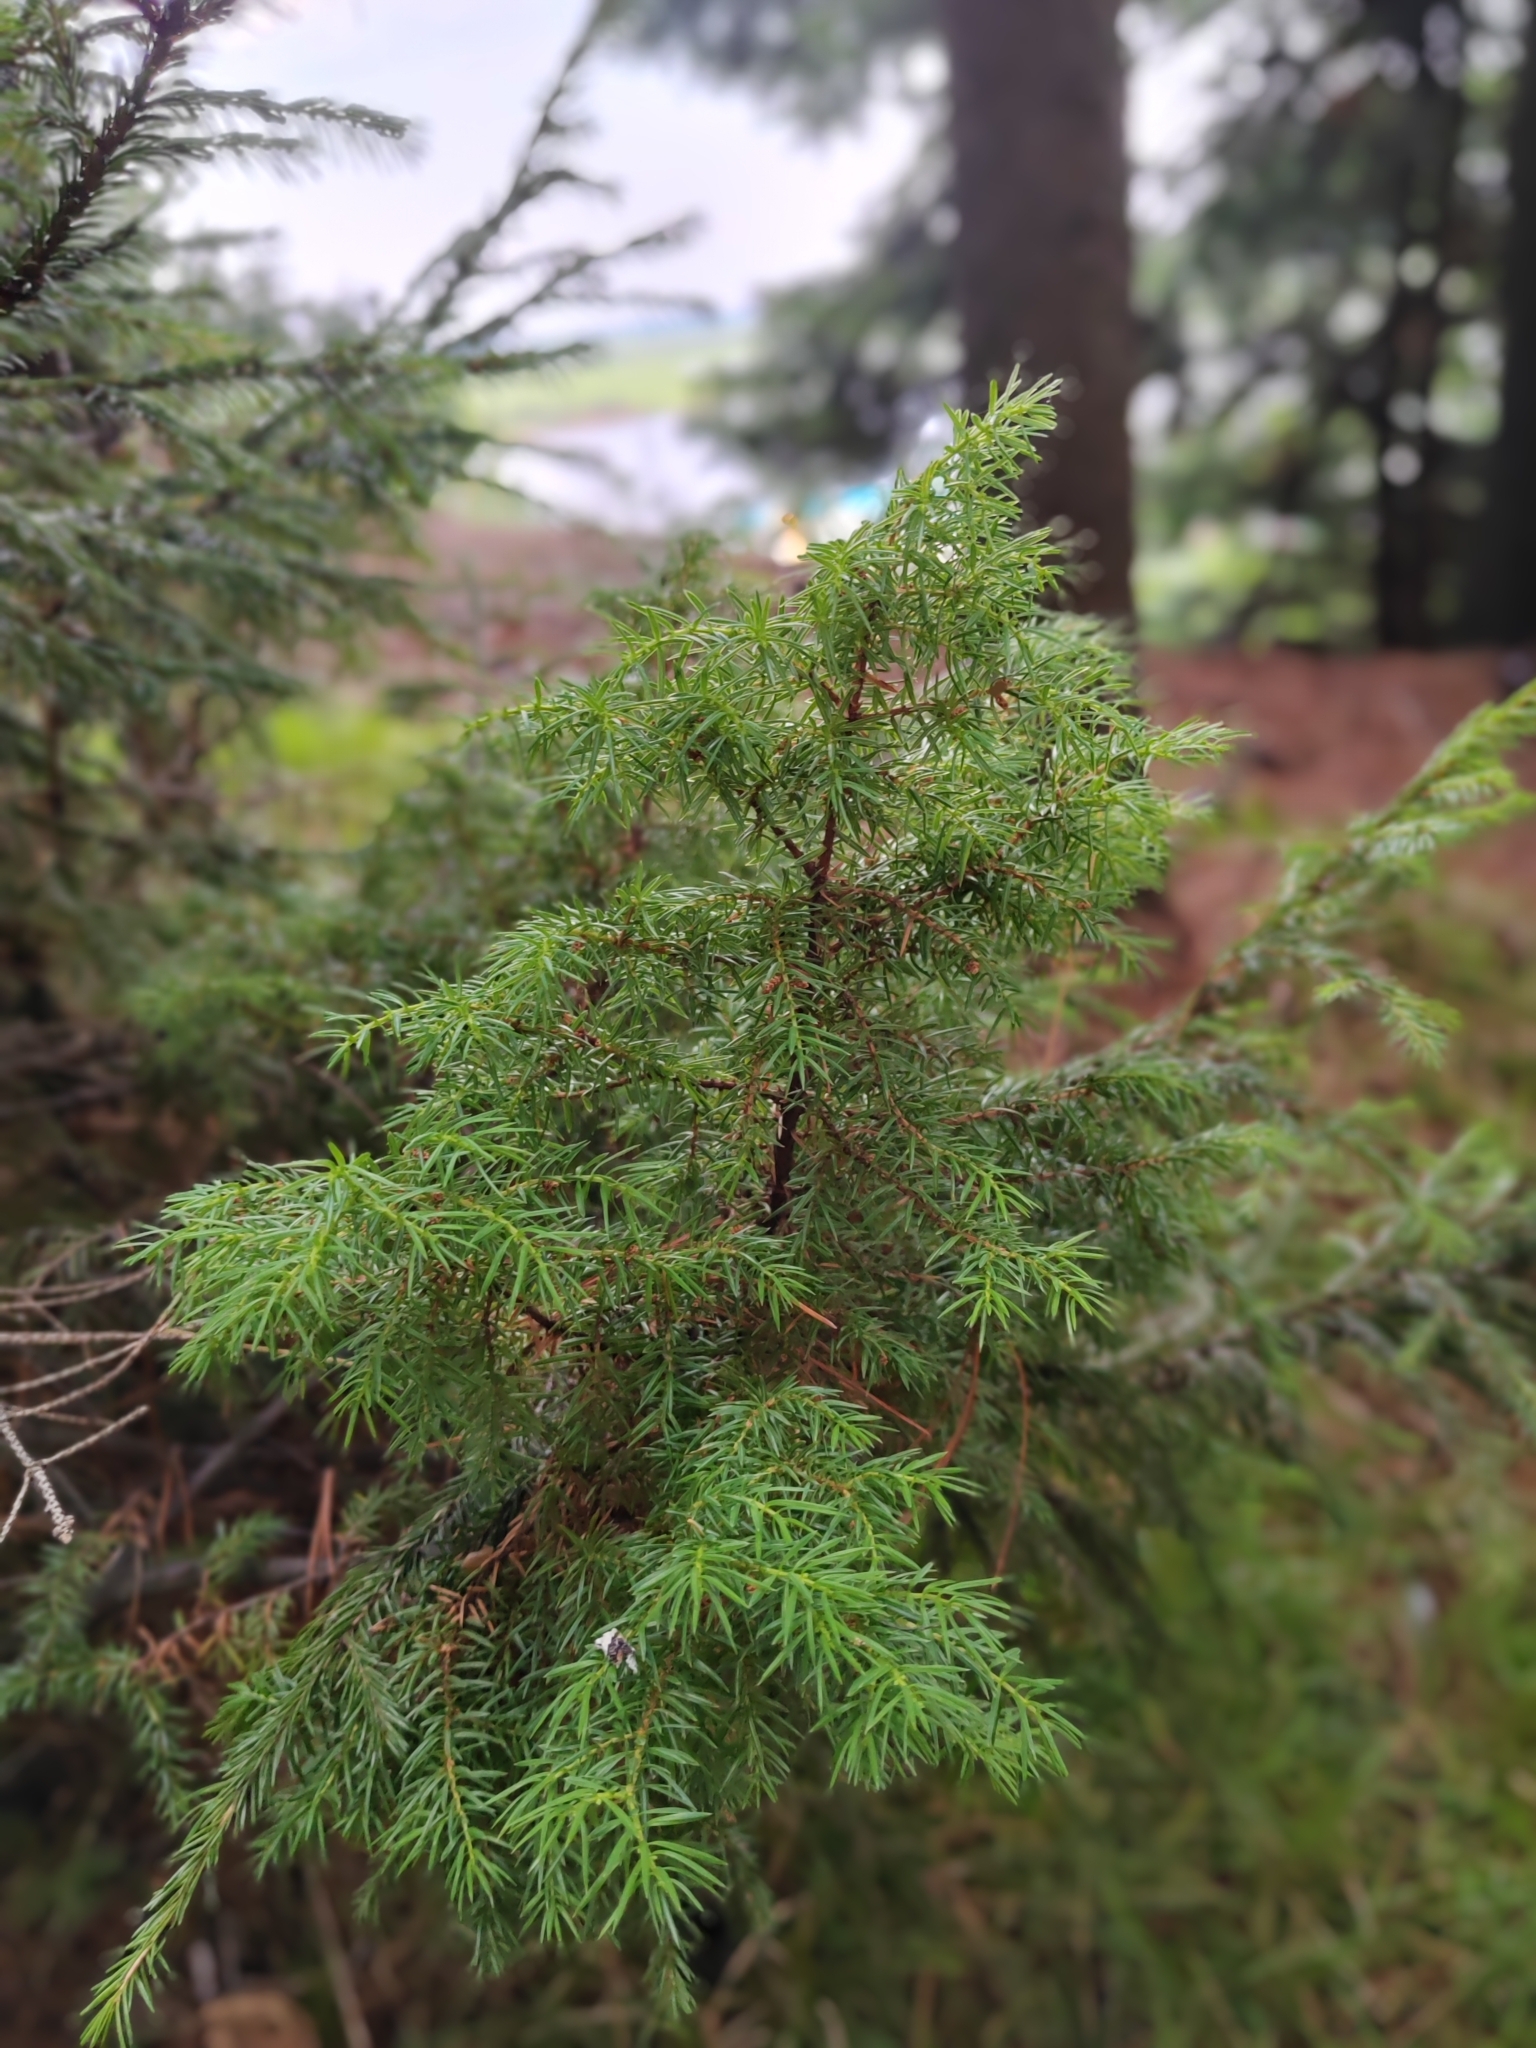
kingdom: Plantae
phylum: Tracheophyta
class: Pinopsida
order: Pinales
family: Cupressaceae
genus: Juniperus
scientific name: Juniperus communis
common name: Common juniper
